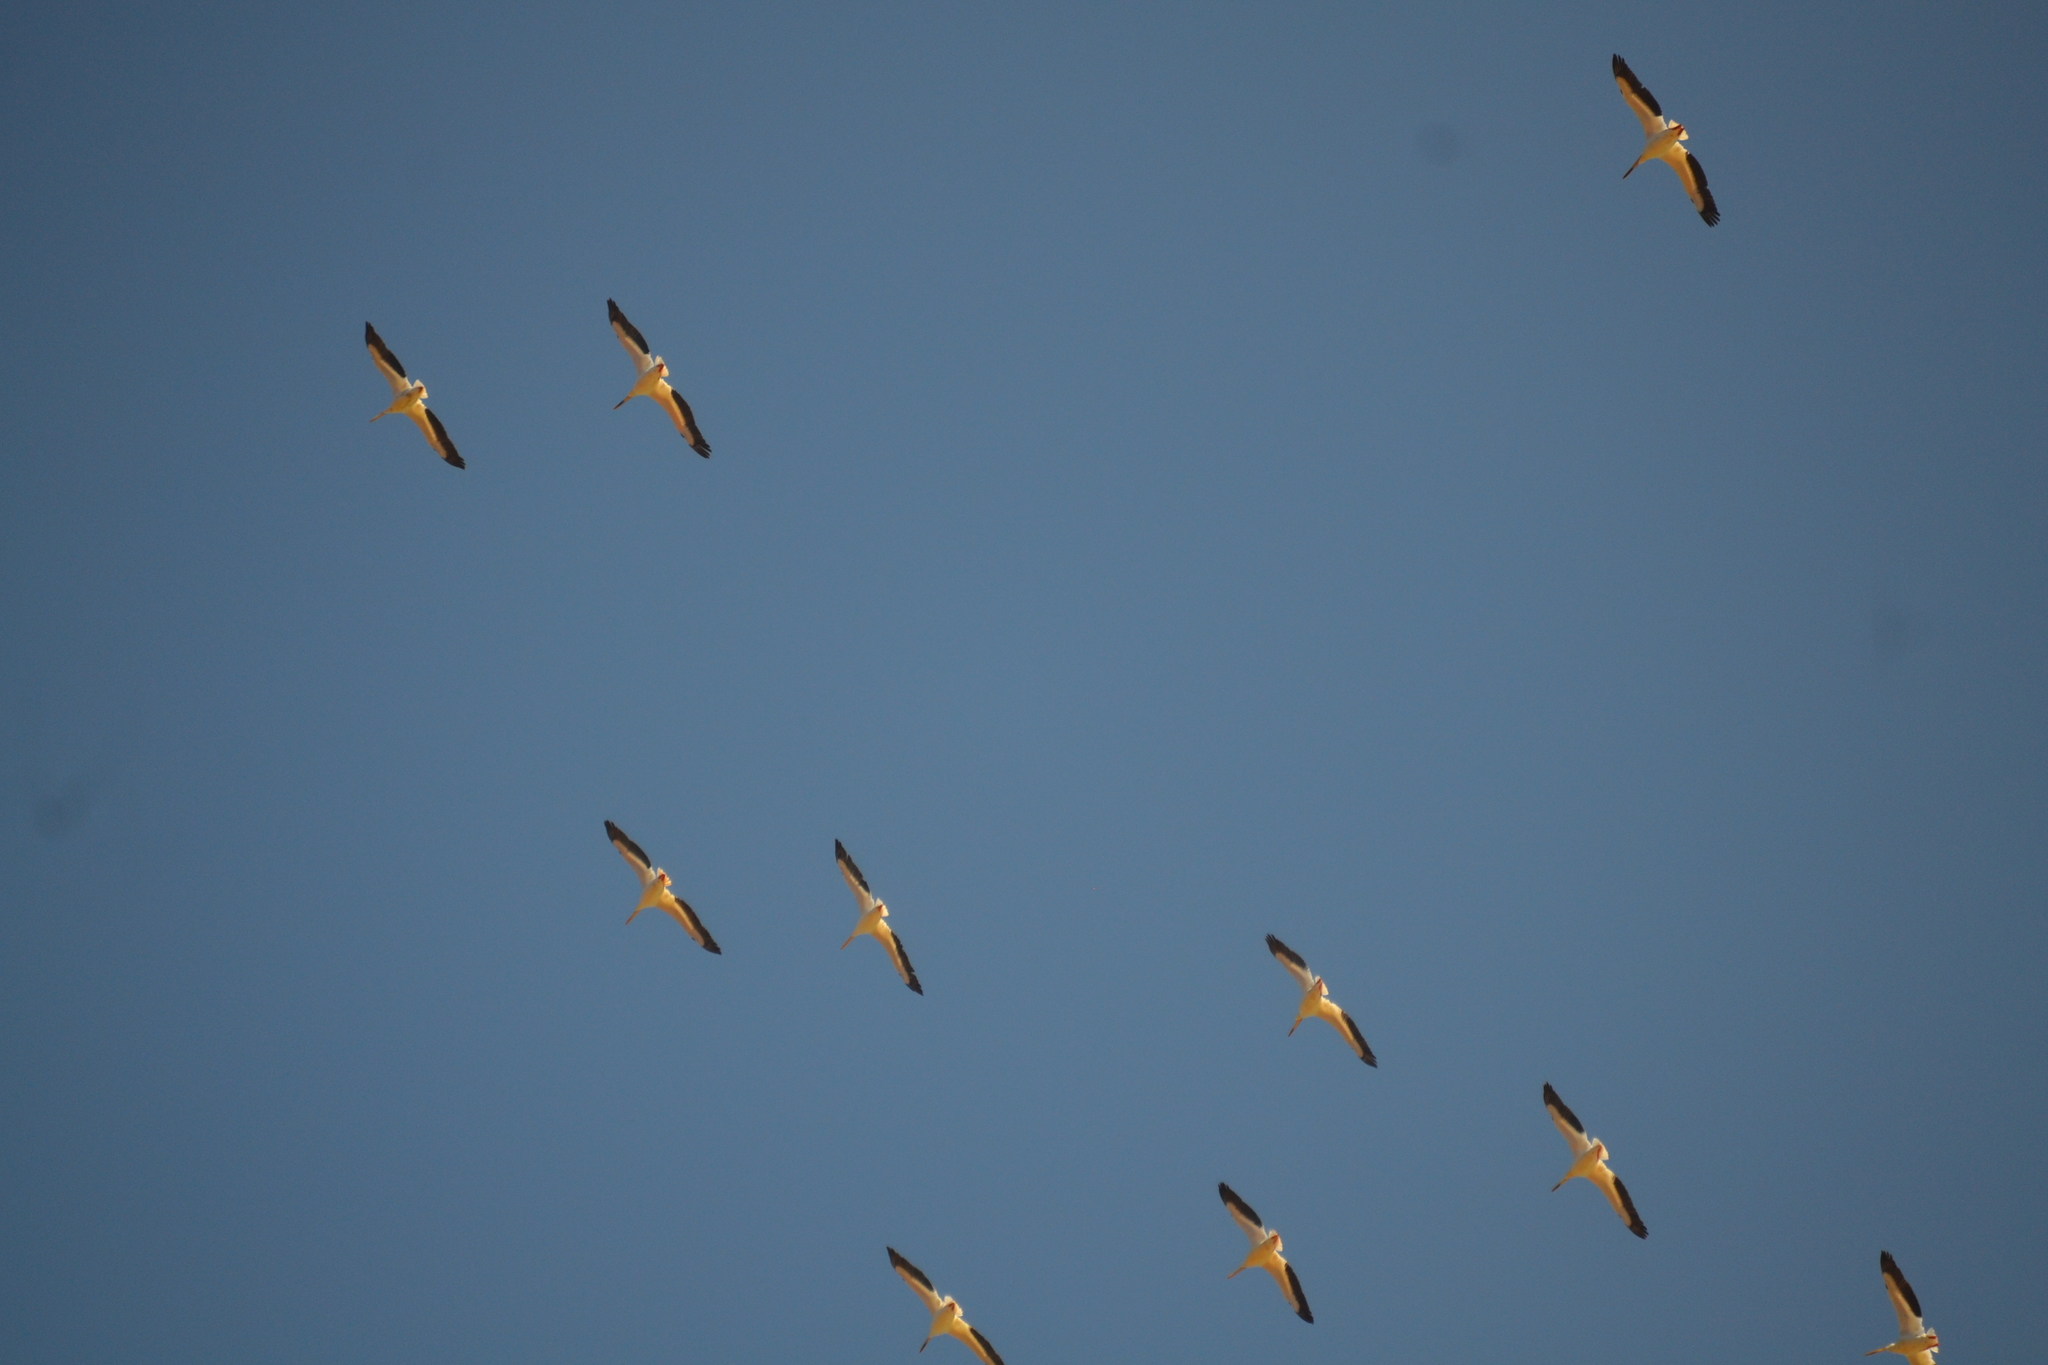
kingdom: Animalia
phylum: Chordata
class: Aves
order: Pelecaniformes
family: Pelecanidae
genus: Pelecanus
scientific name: Pelecanus erythrorhynchos
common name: American white pelican
